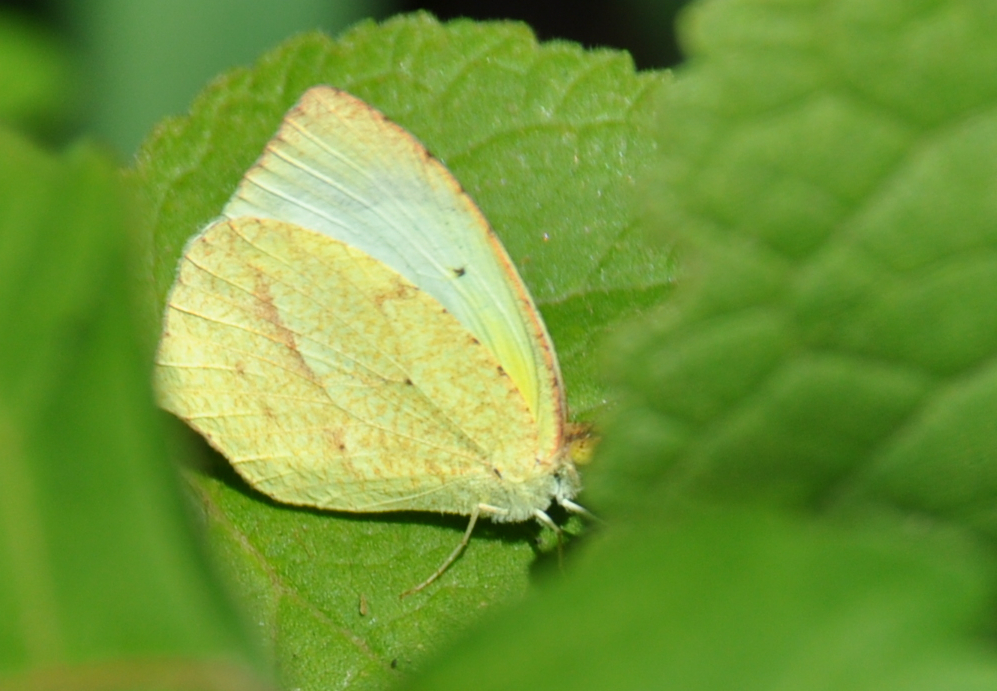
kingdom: Animalia
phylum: Arthropoda
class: Insecta
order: Lepidoptera
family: Pieridae
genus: Abaeis
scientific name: Abaeis mexicana
